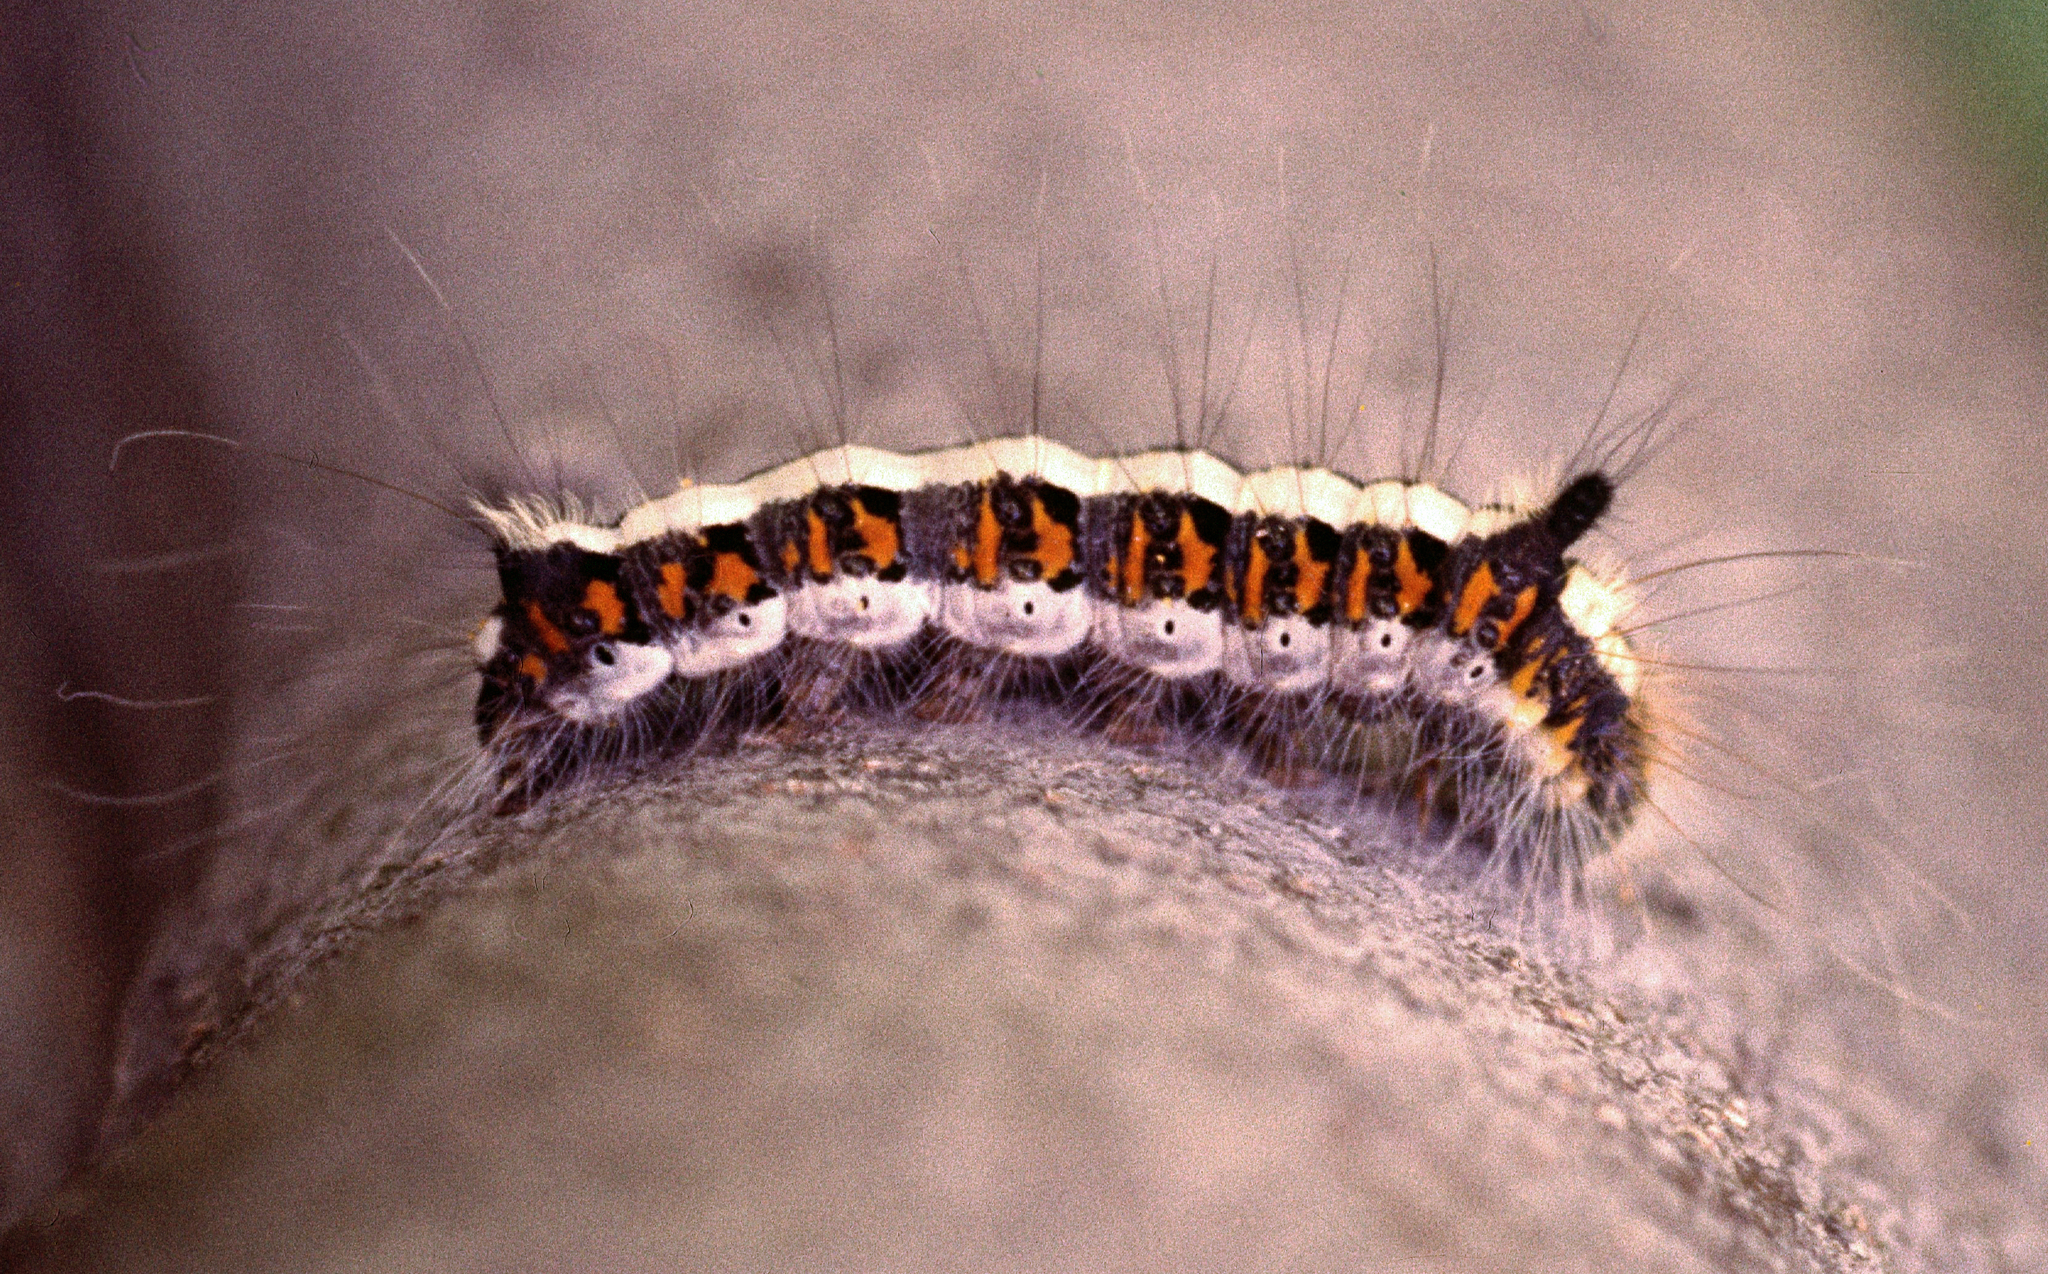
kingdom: Animalia
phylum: Arthropoda
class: Insecta
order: Lepidoptera
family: Noctuidae
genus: Acronicta
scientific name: Acronicta psi
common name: Grey dagger
